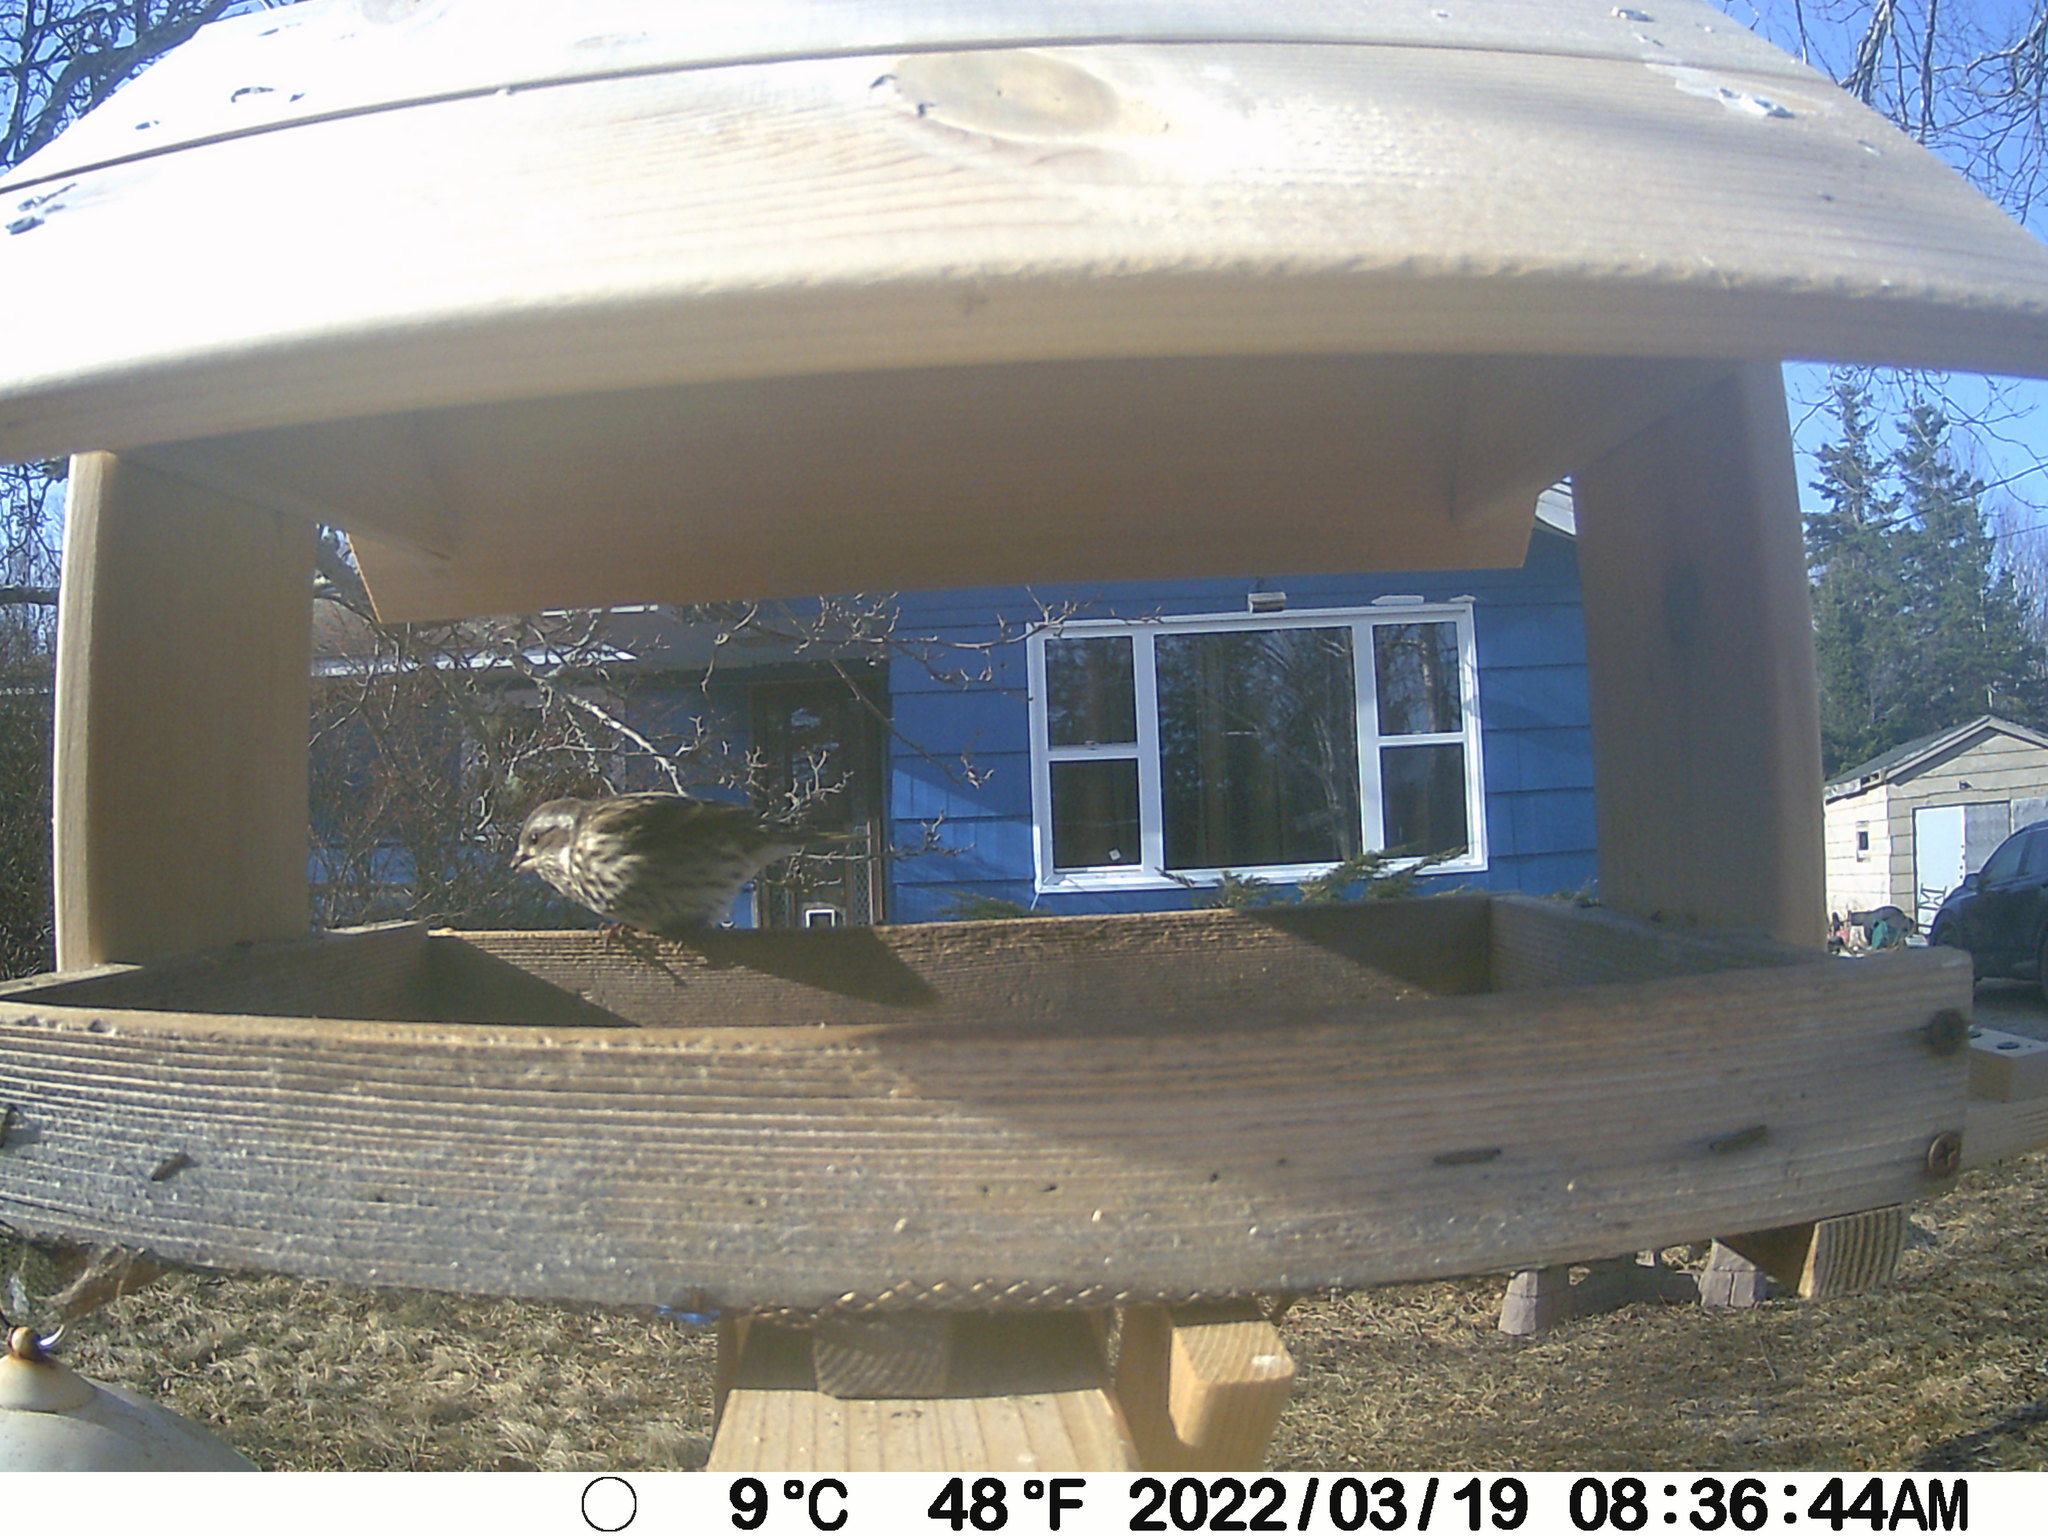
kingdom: Animalia
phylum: Chordata
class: Aves
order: Passeriformes
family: Fringillidae
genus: Haemorhous
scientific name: Haemorhous purpureus
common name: Purple finch
